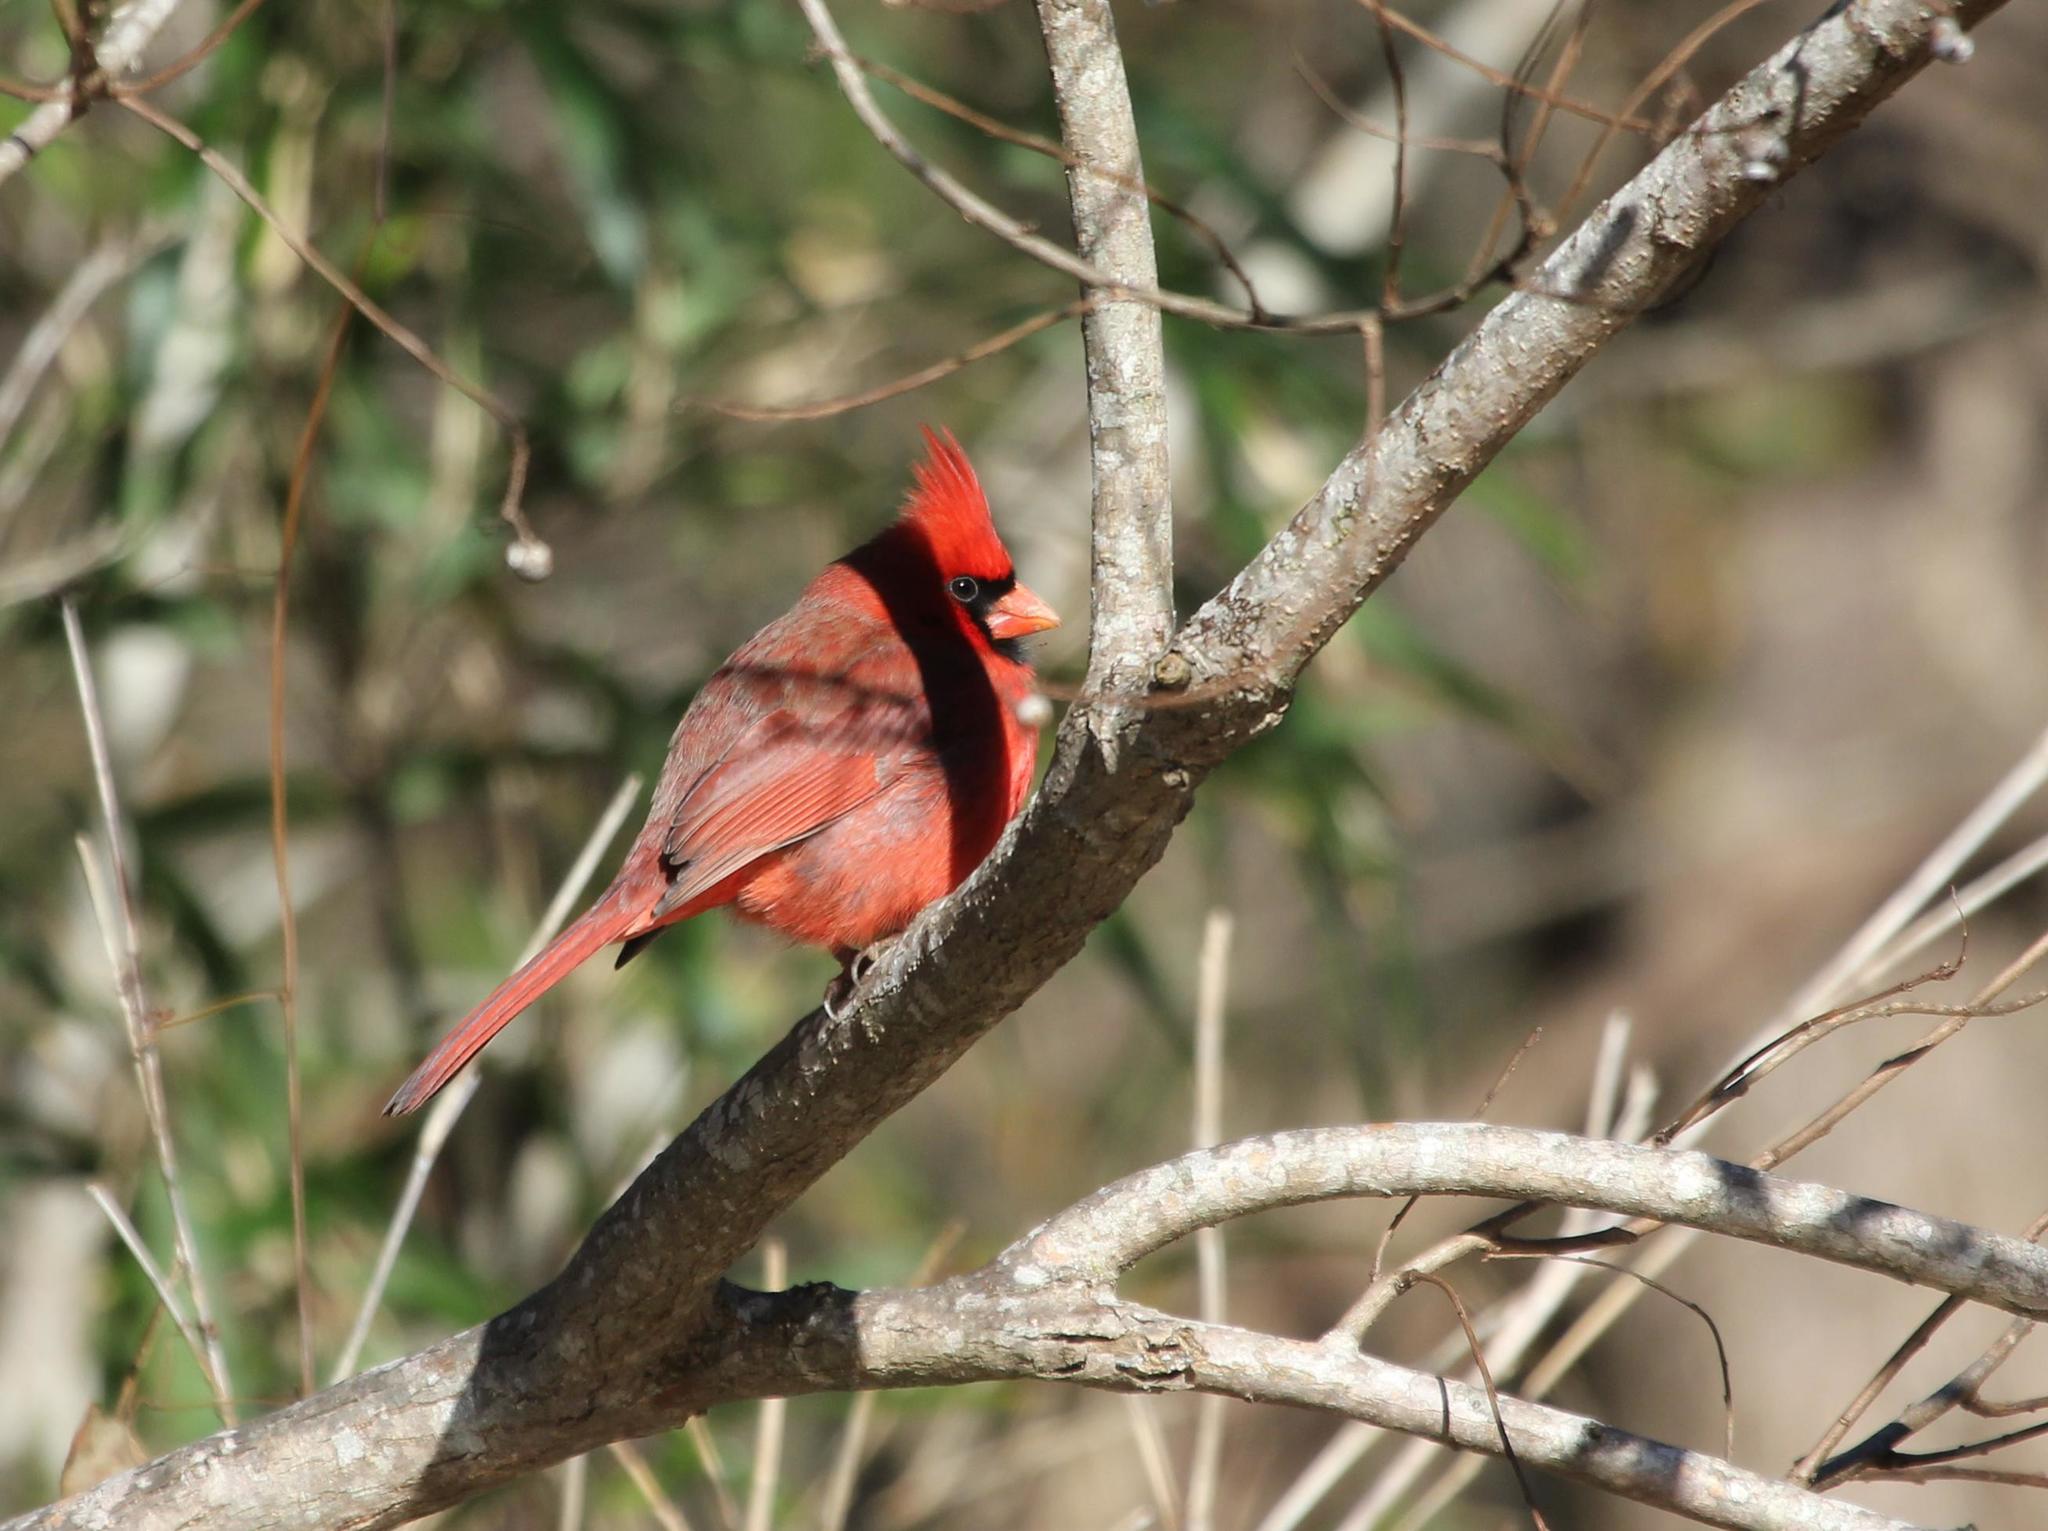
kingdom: Animalia
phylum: Chordata
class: Aves
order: Passeriformes
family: Cardinalidae
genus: Cardinalis
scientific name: Cardinalis cardinalis
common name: Northern cardinal
